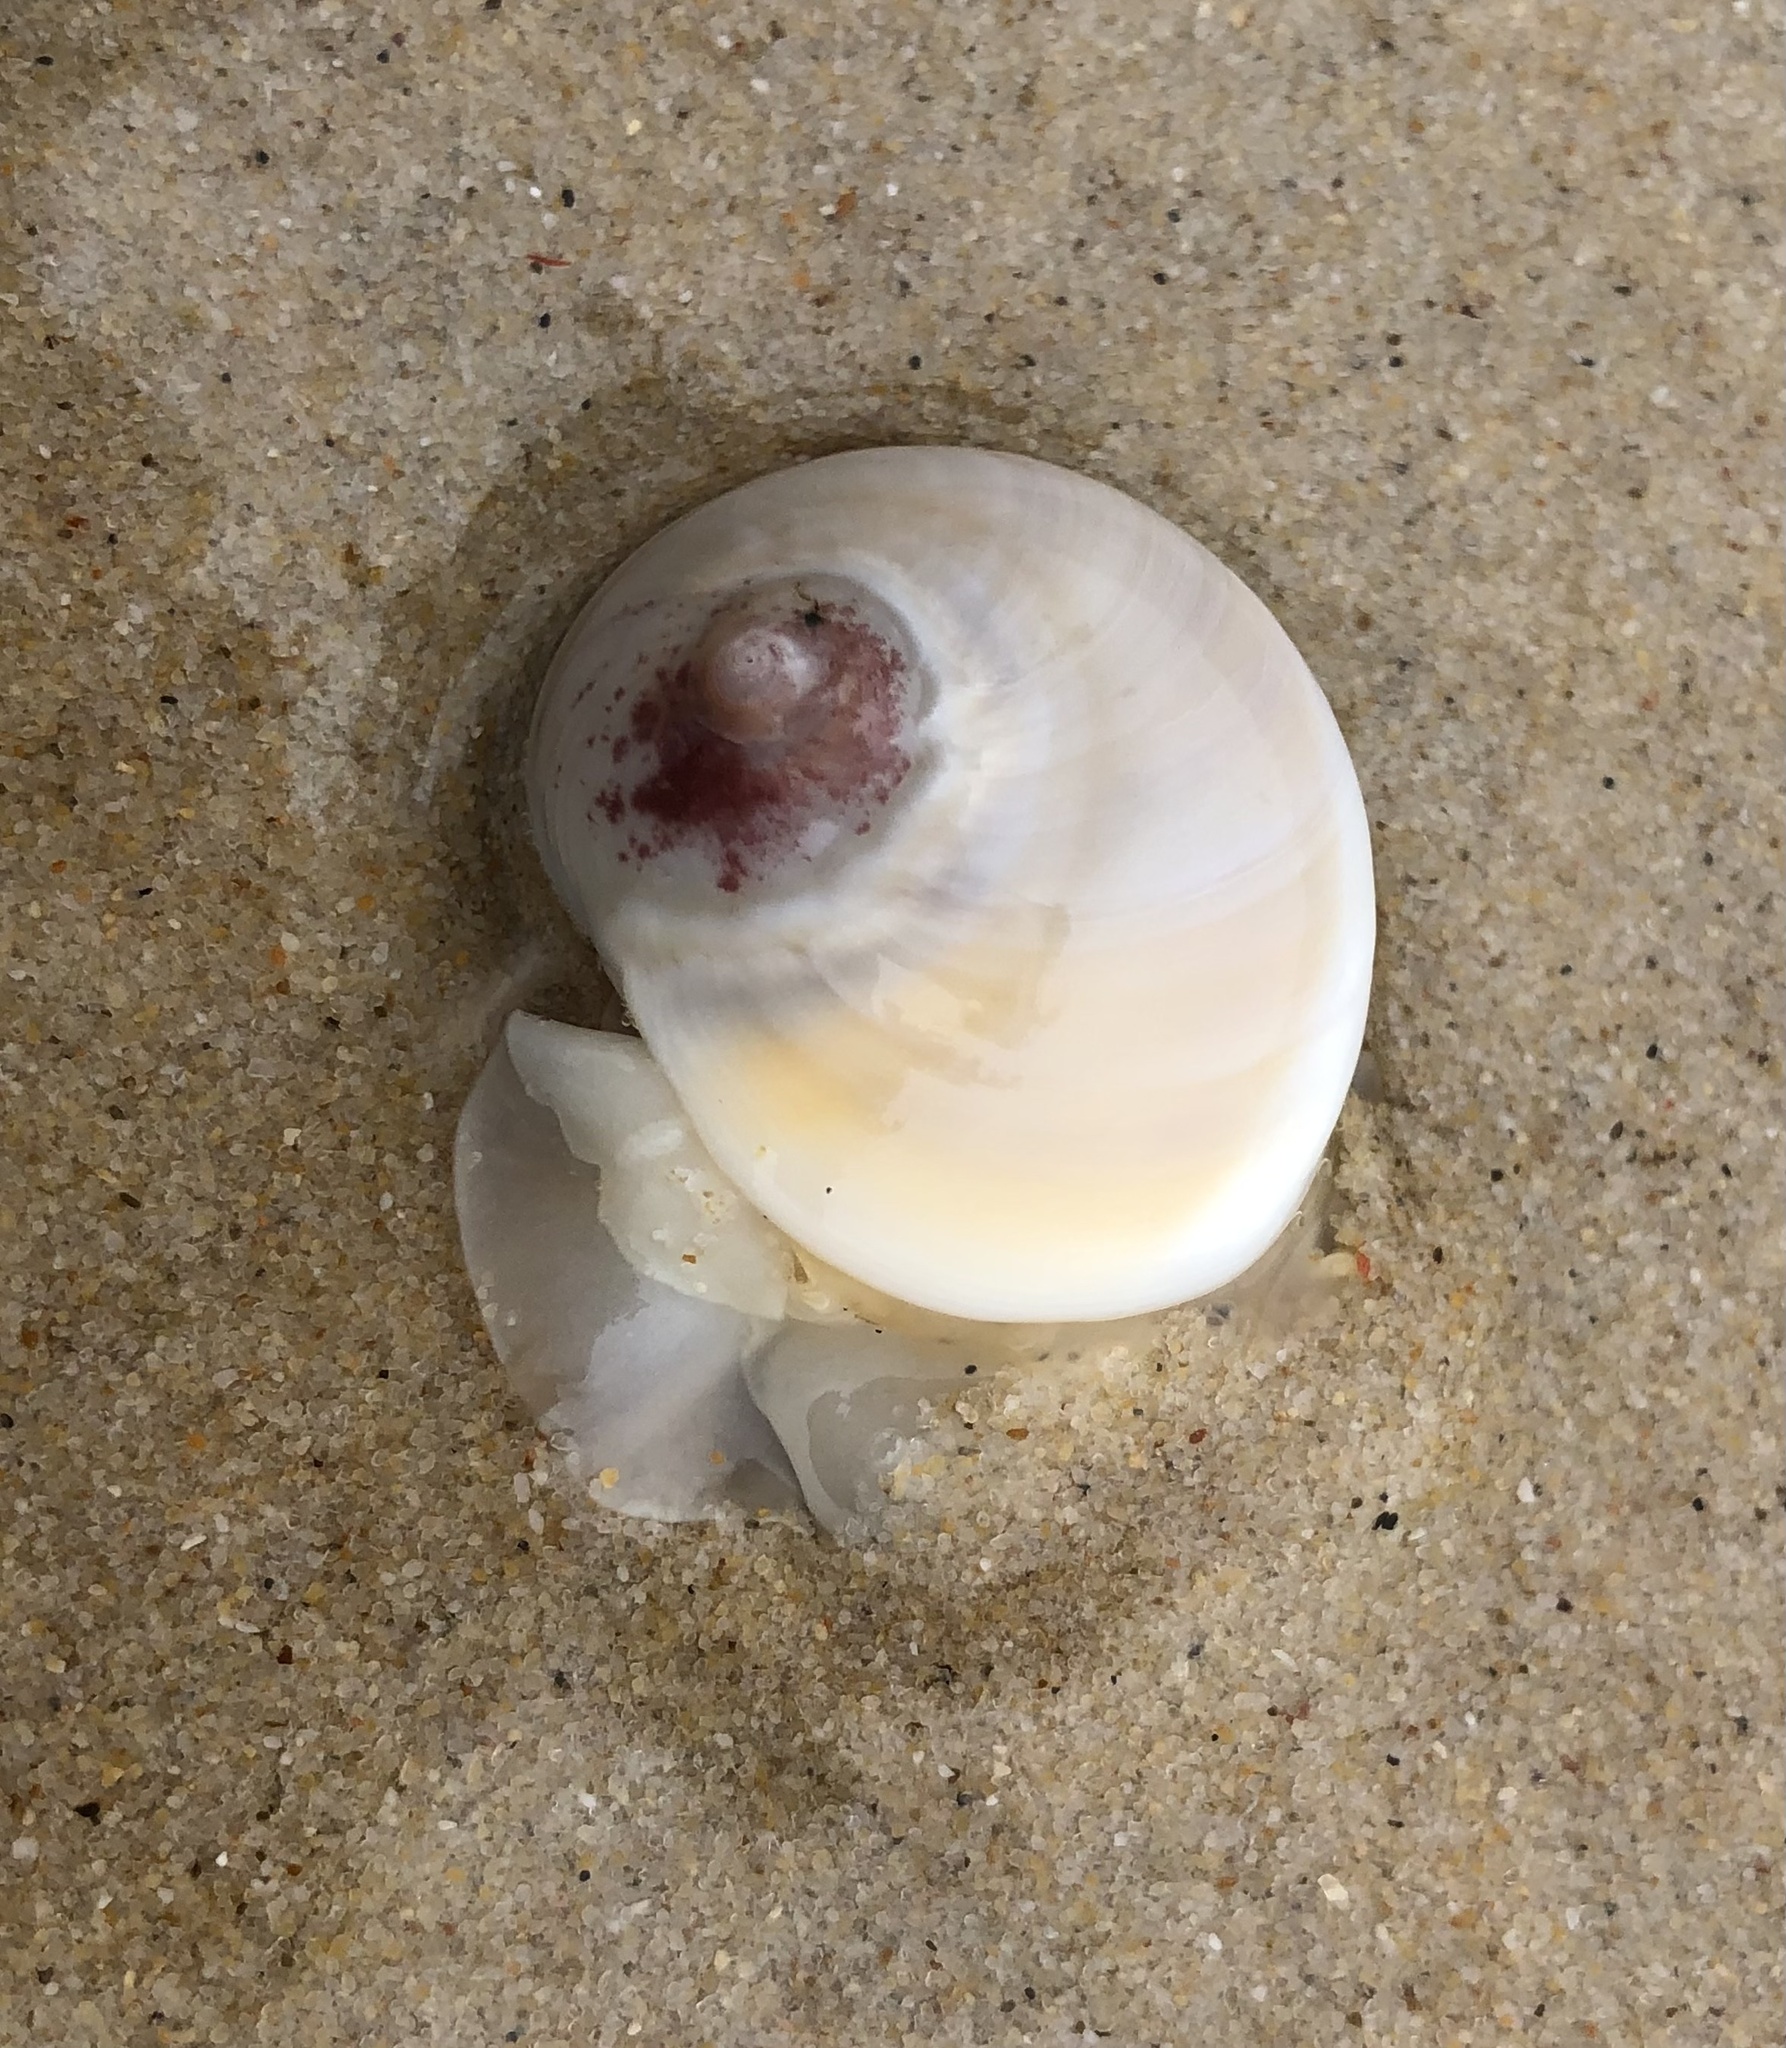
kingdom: Animalia
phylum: Mollusca
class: Gastropoda
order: Littorinimorpha
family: Naticidae
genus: Conuber
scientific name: Conuber incei
